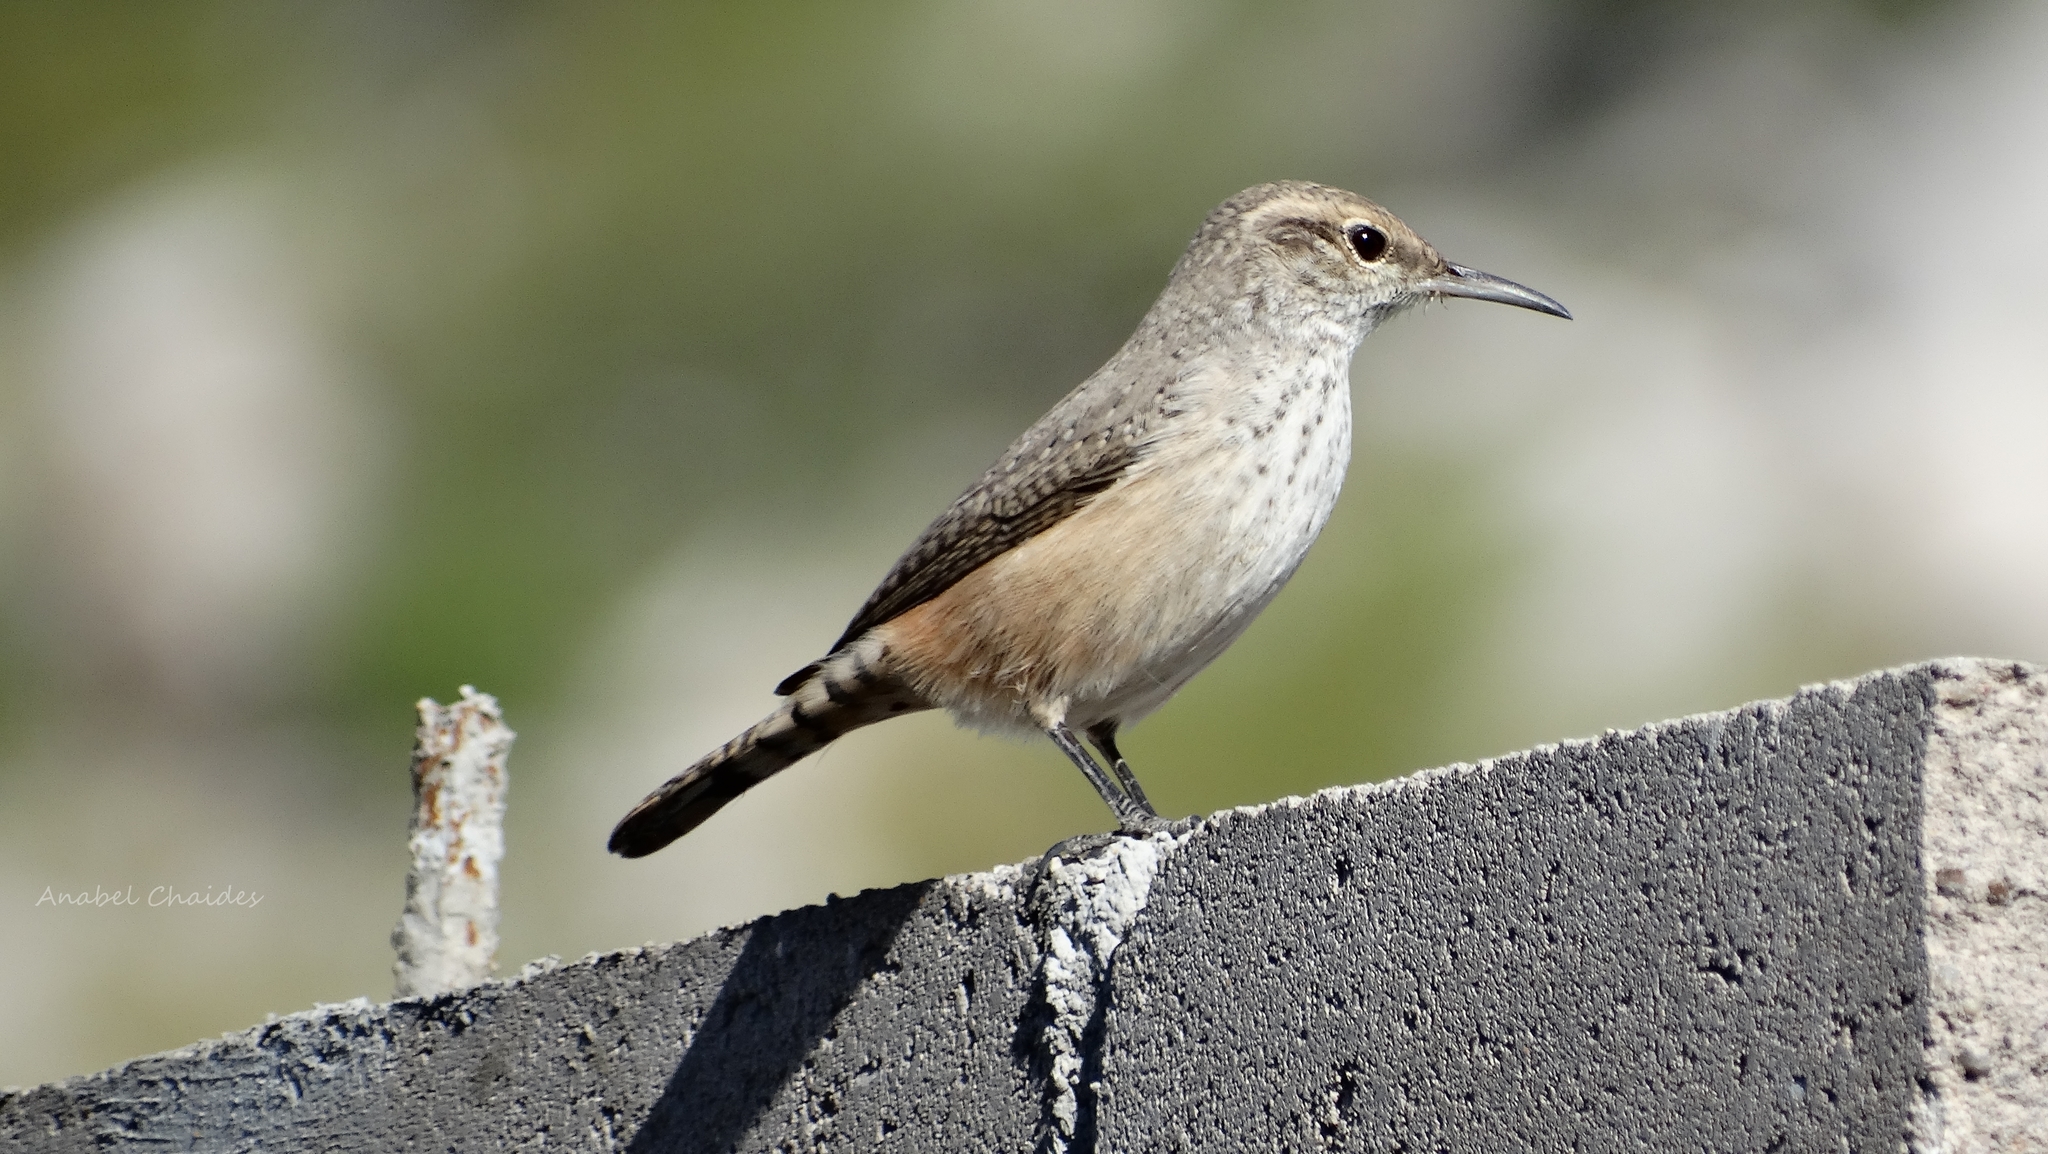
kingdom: Animalia
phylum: Chordata
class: Aves
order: Passeriformes
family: Troglodytidae
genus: Salpinctes
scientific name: Salpinctes obsoletus
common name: Rock wren
